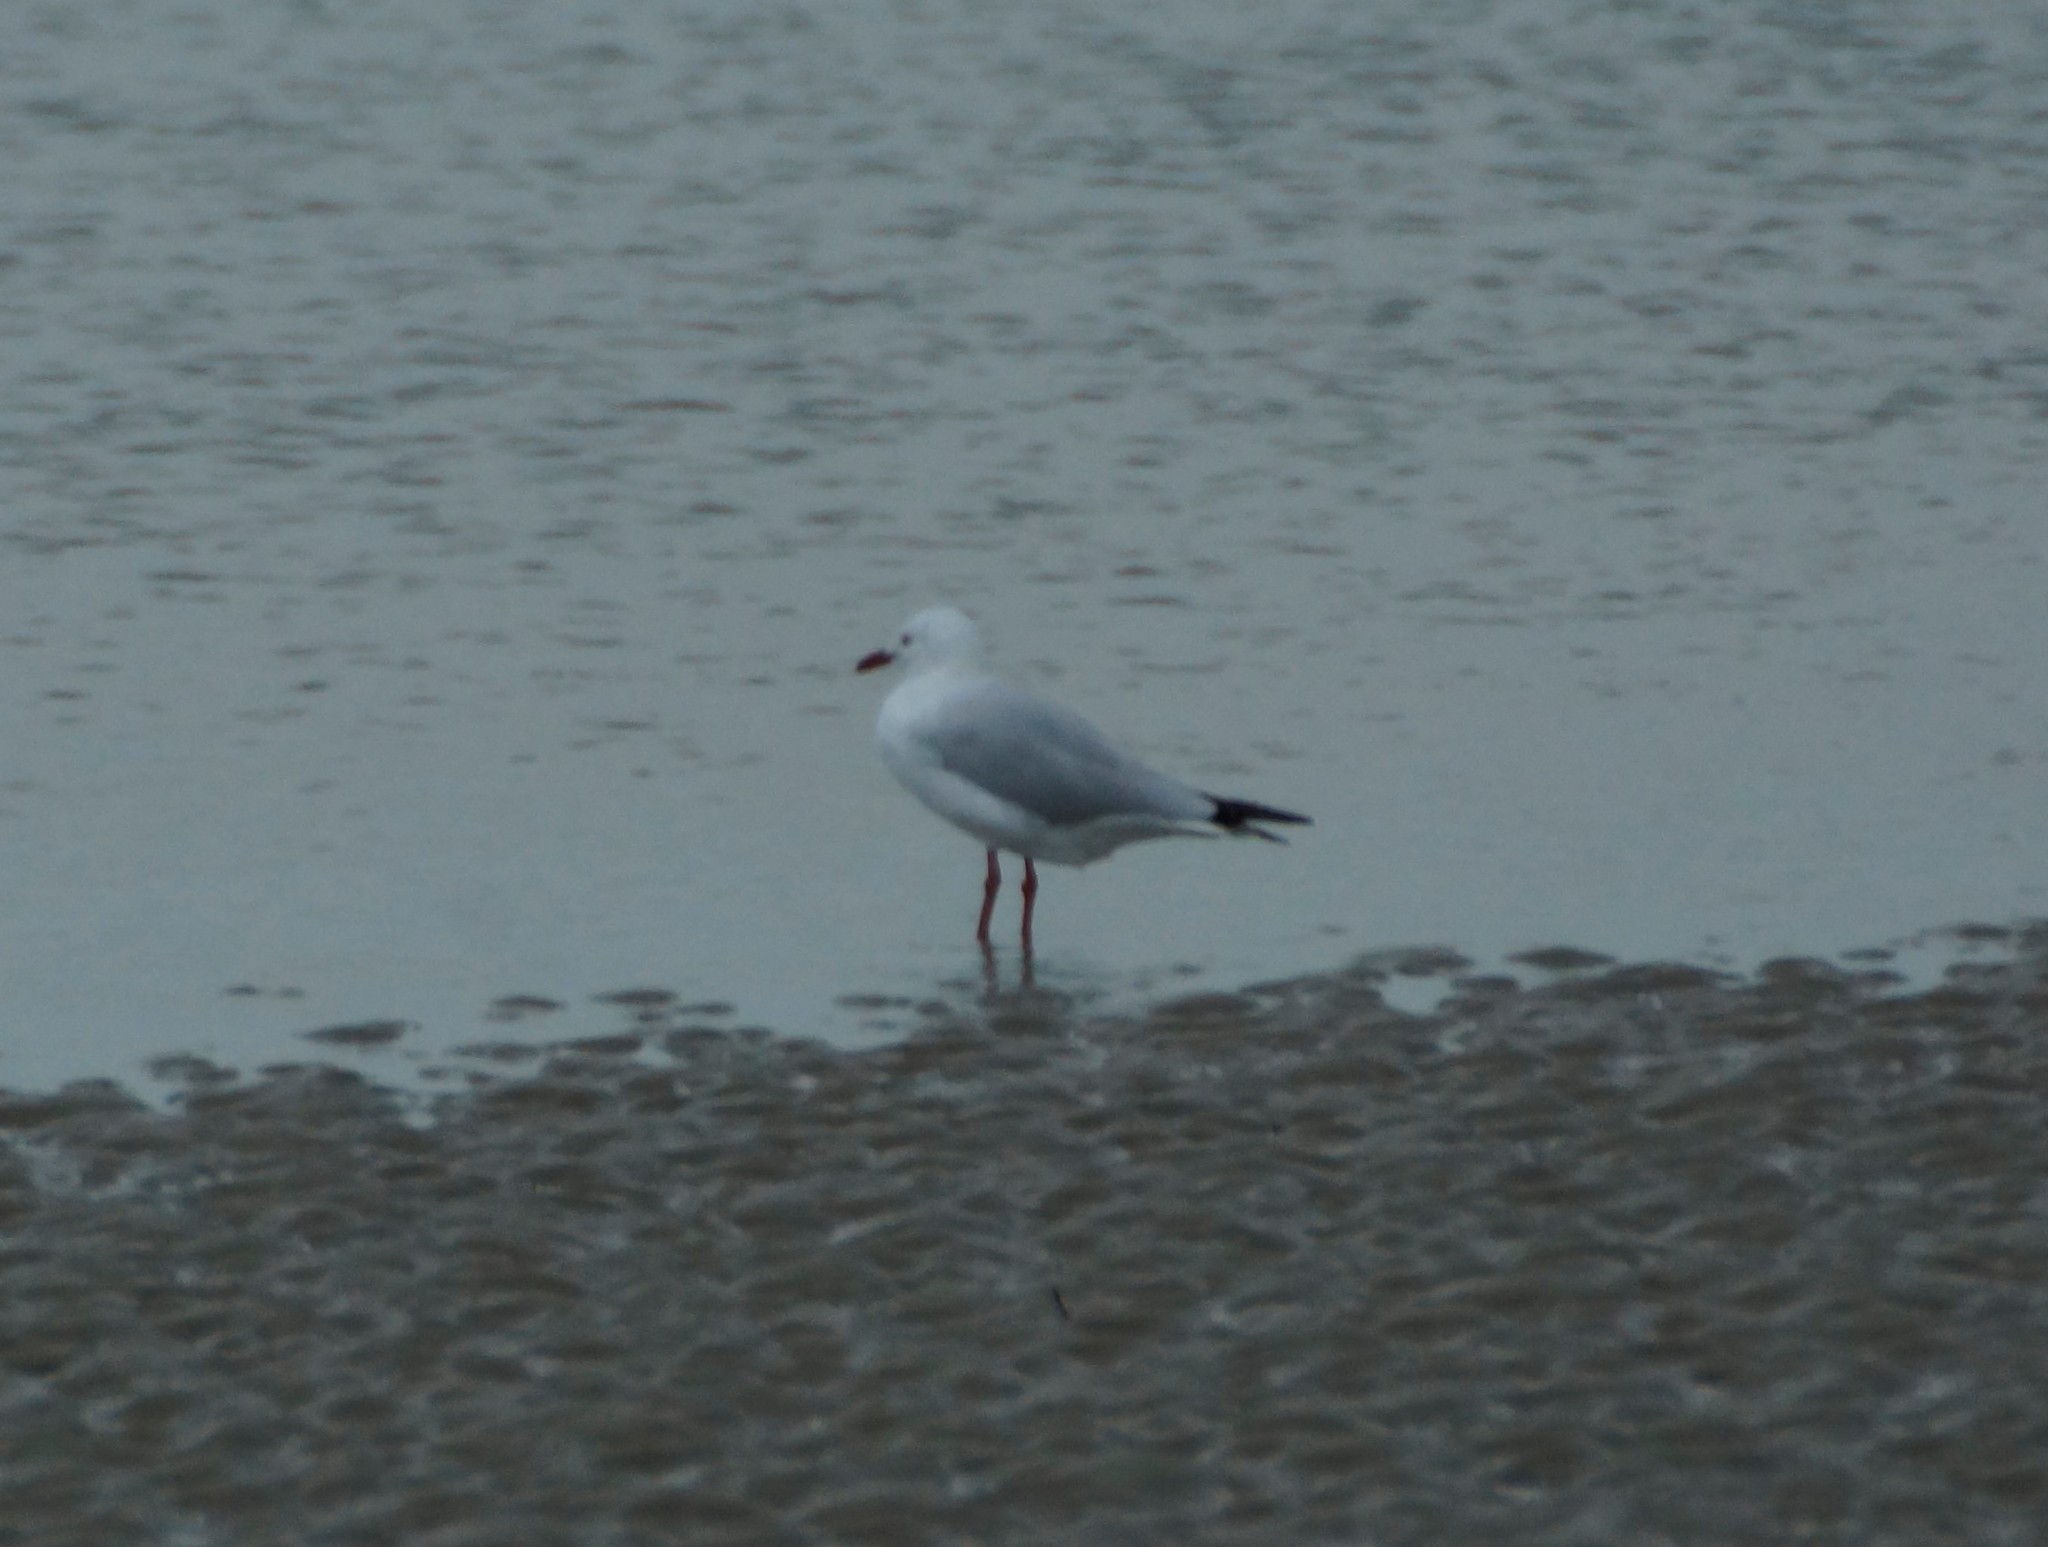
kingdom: Animalia
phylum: Chordata
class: Aves
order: Charadriiformes
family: Laridae
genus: Chroicocephalus
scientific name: Chroicocephalus novaehollandiae
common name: Silver gull
